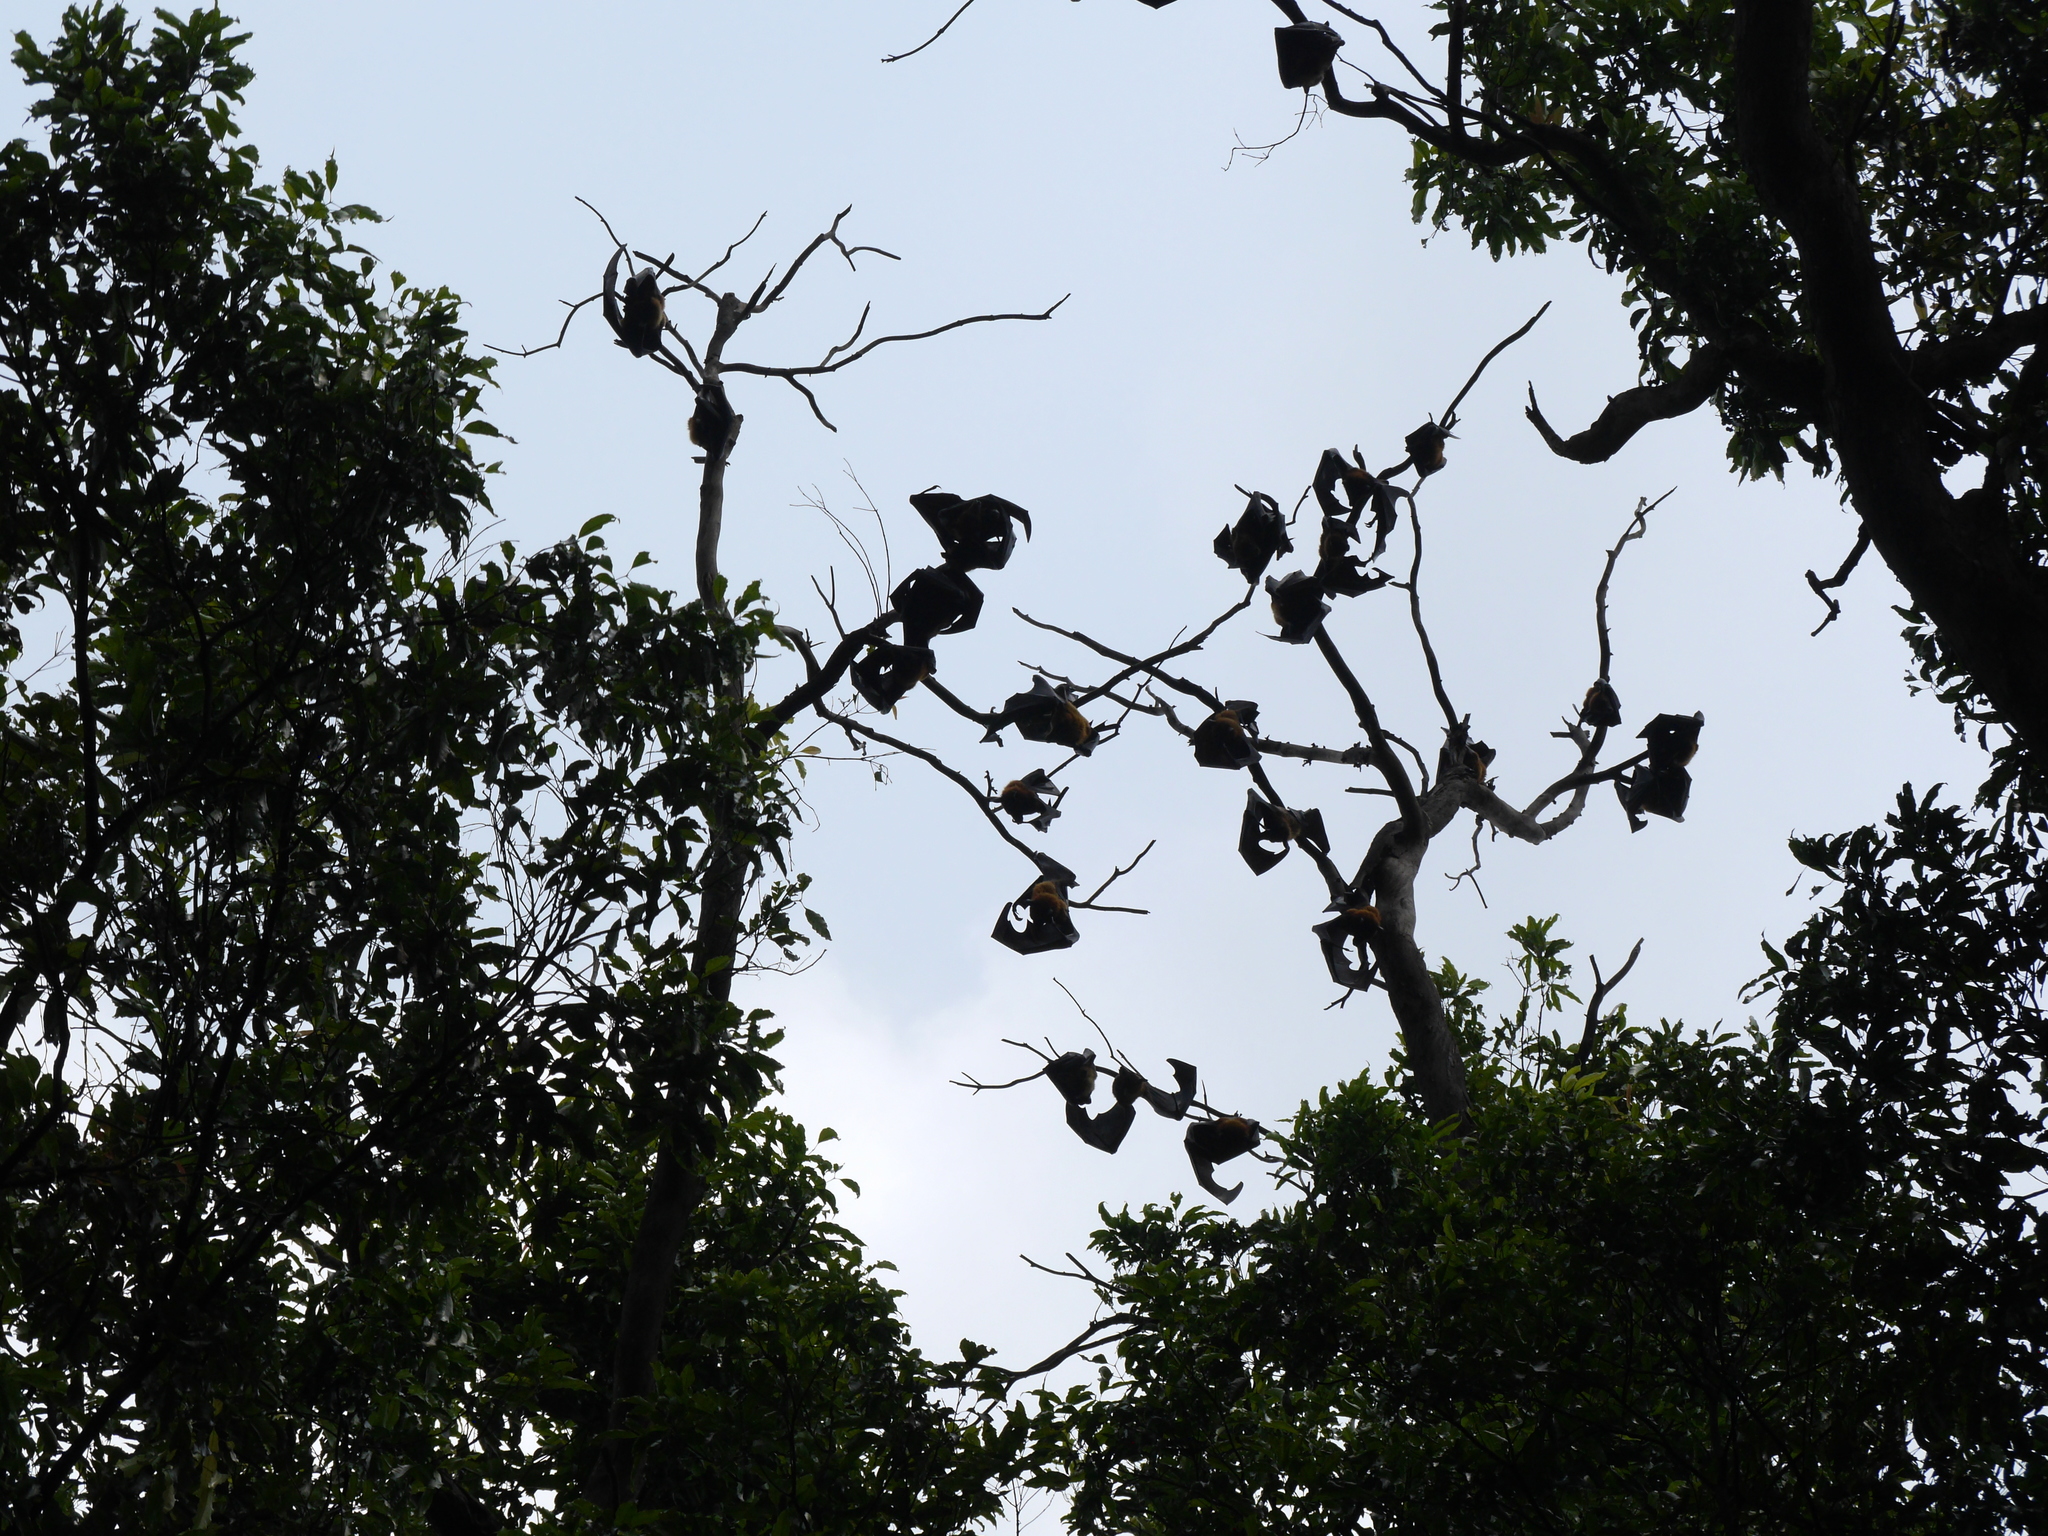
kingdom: Animalia
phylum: Chordata
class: Mammalia
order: Chiroptera
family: Pteropodidae
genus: Pteropus
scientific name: Pteropus vampyrus
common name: Large flying fox
